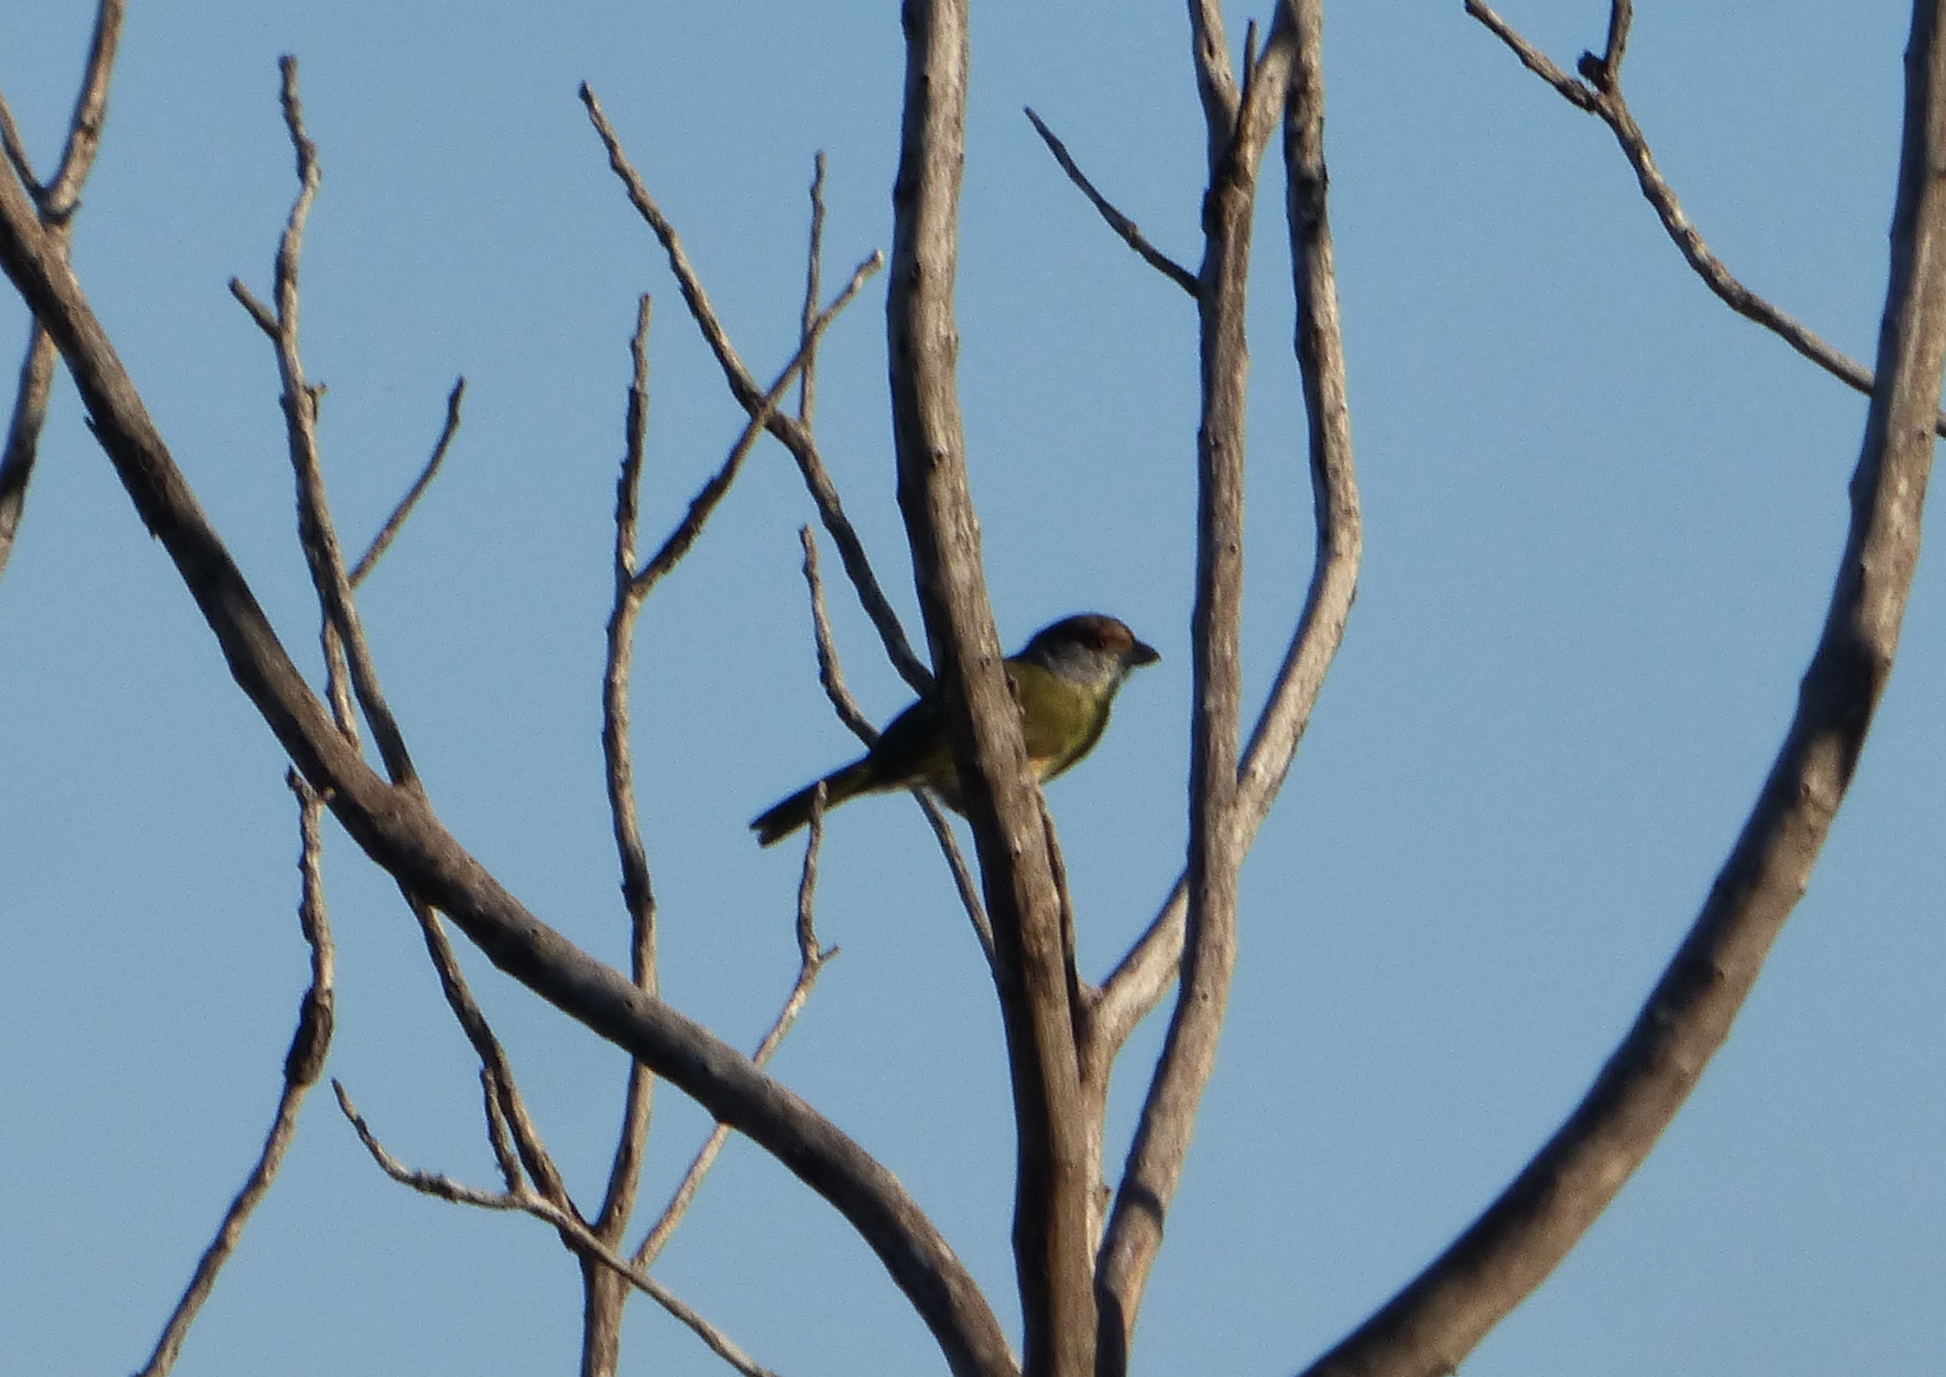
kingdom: Animalia
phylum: Chordata
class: Aves
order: Passeriformes
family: Vireonidae
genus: Cyclarhis
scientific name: Cyclarhis gujanensis
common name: Rufous-browed peppershrike
